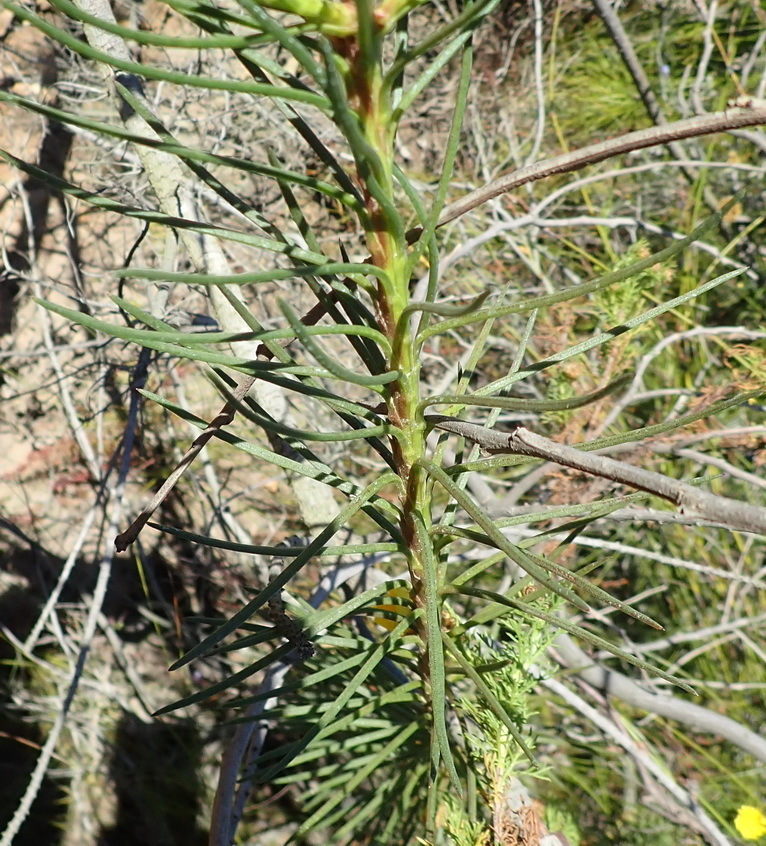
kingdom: Plantae
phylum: Tracheophyta
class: Magnoliopsida
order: Asterales
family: Asteraceae
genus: Athanasia
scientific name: Athanasia linifolia
